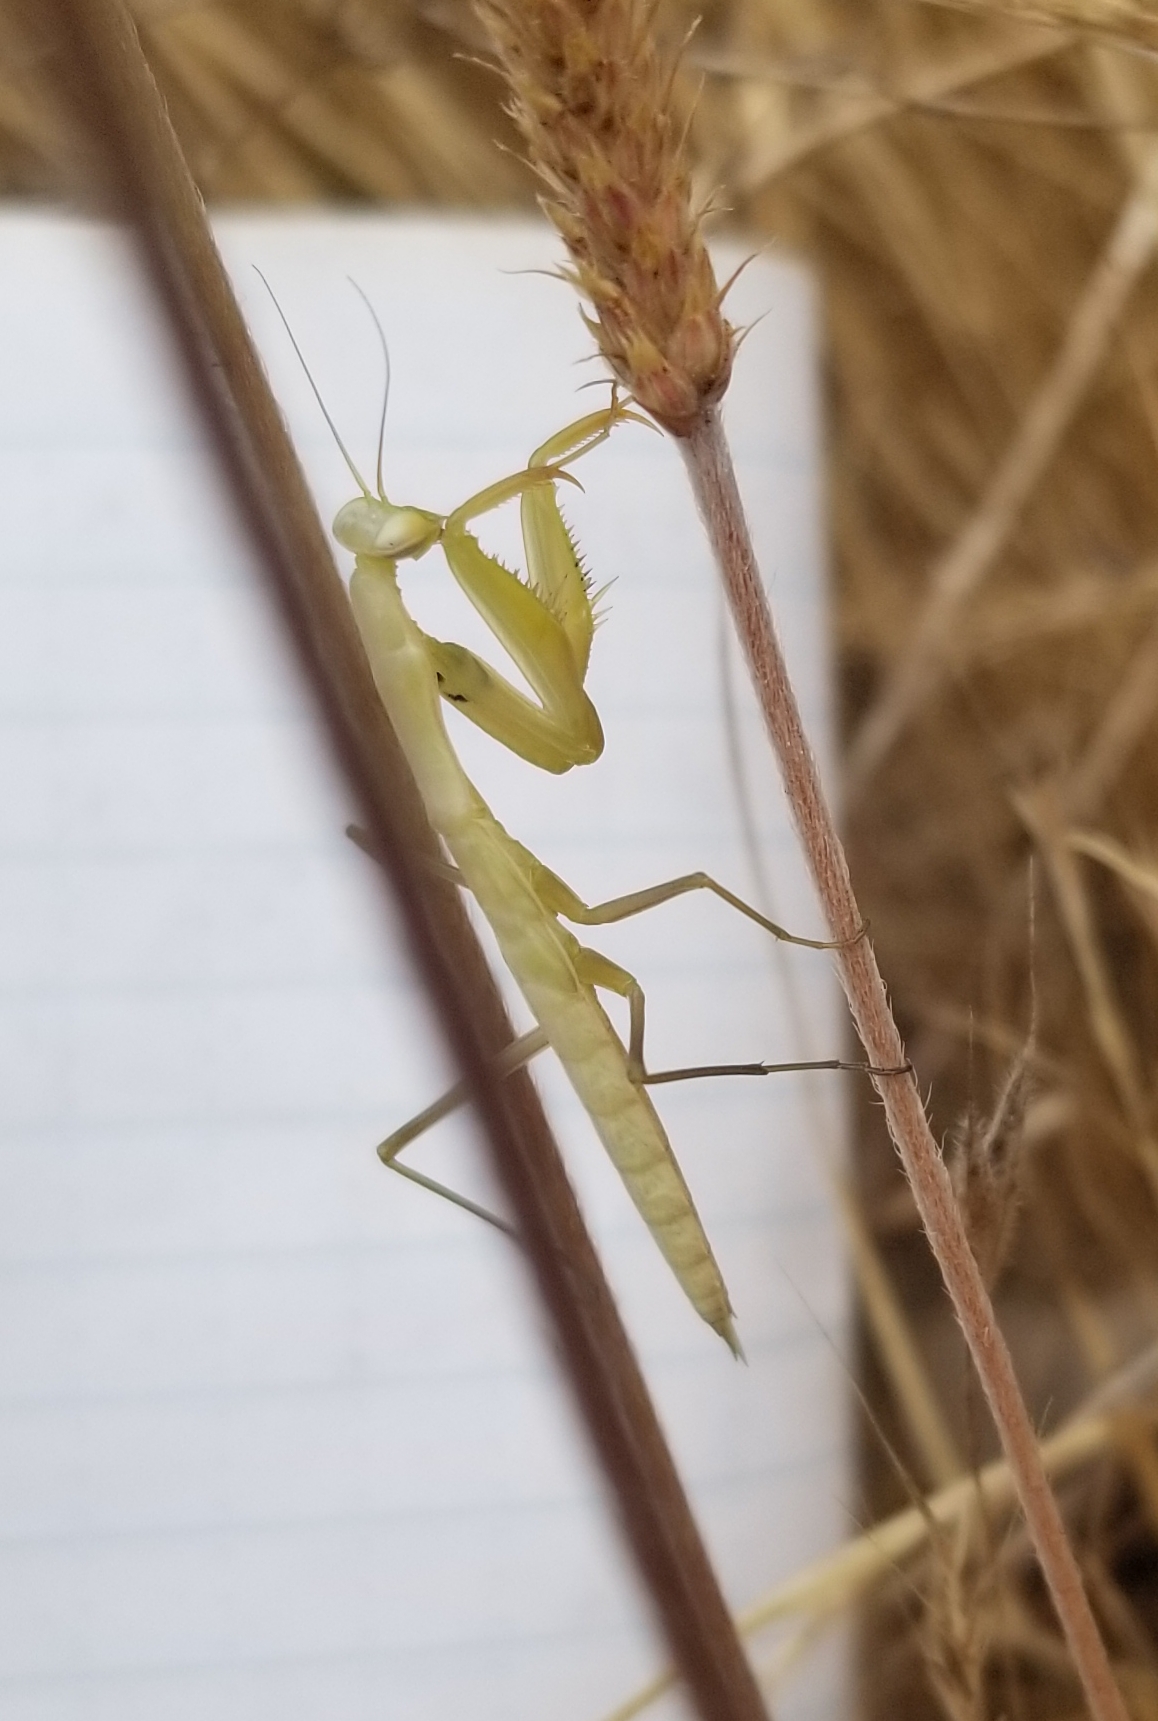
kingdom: Animalia
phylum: Arthropoda
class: Insecta
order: Mantodea
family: Mantidae
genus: Mantis
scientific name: Mantis religiosa
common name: Praying mantis
